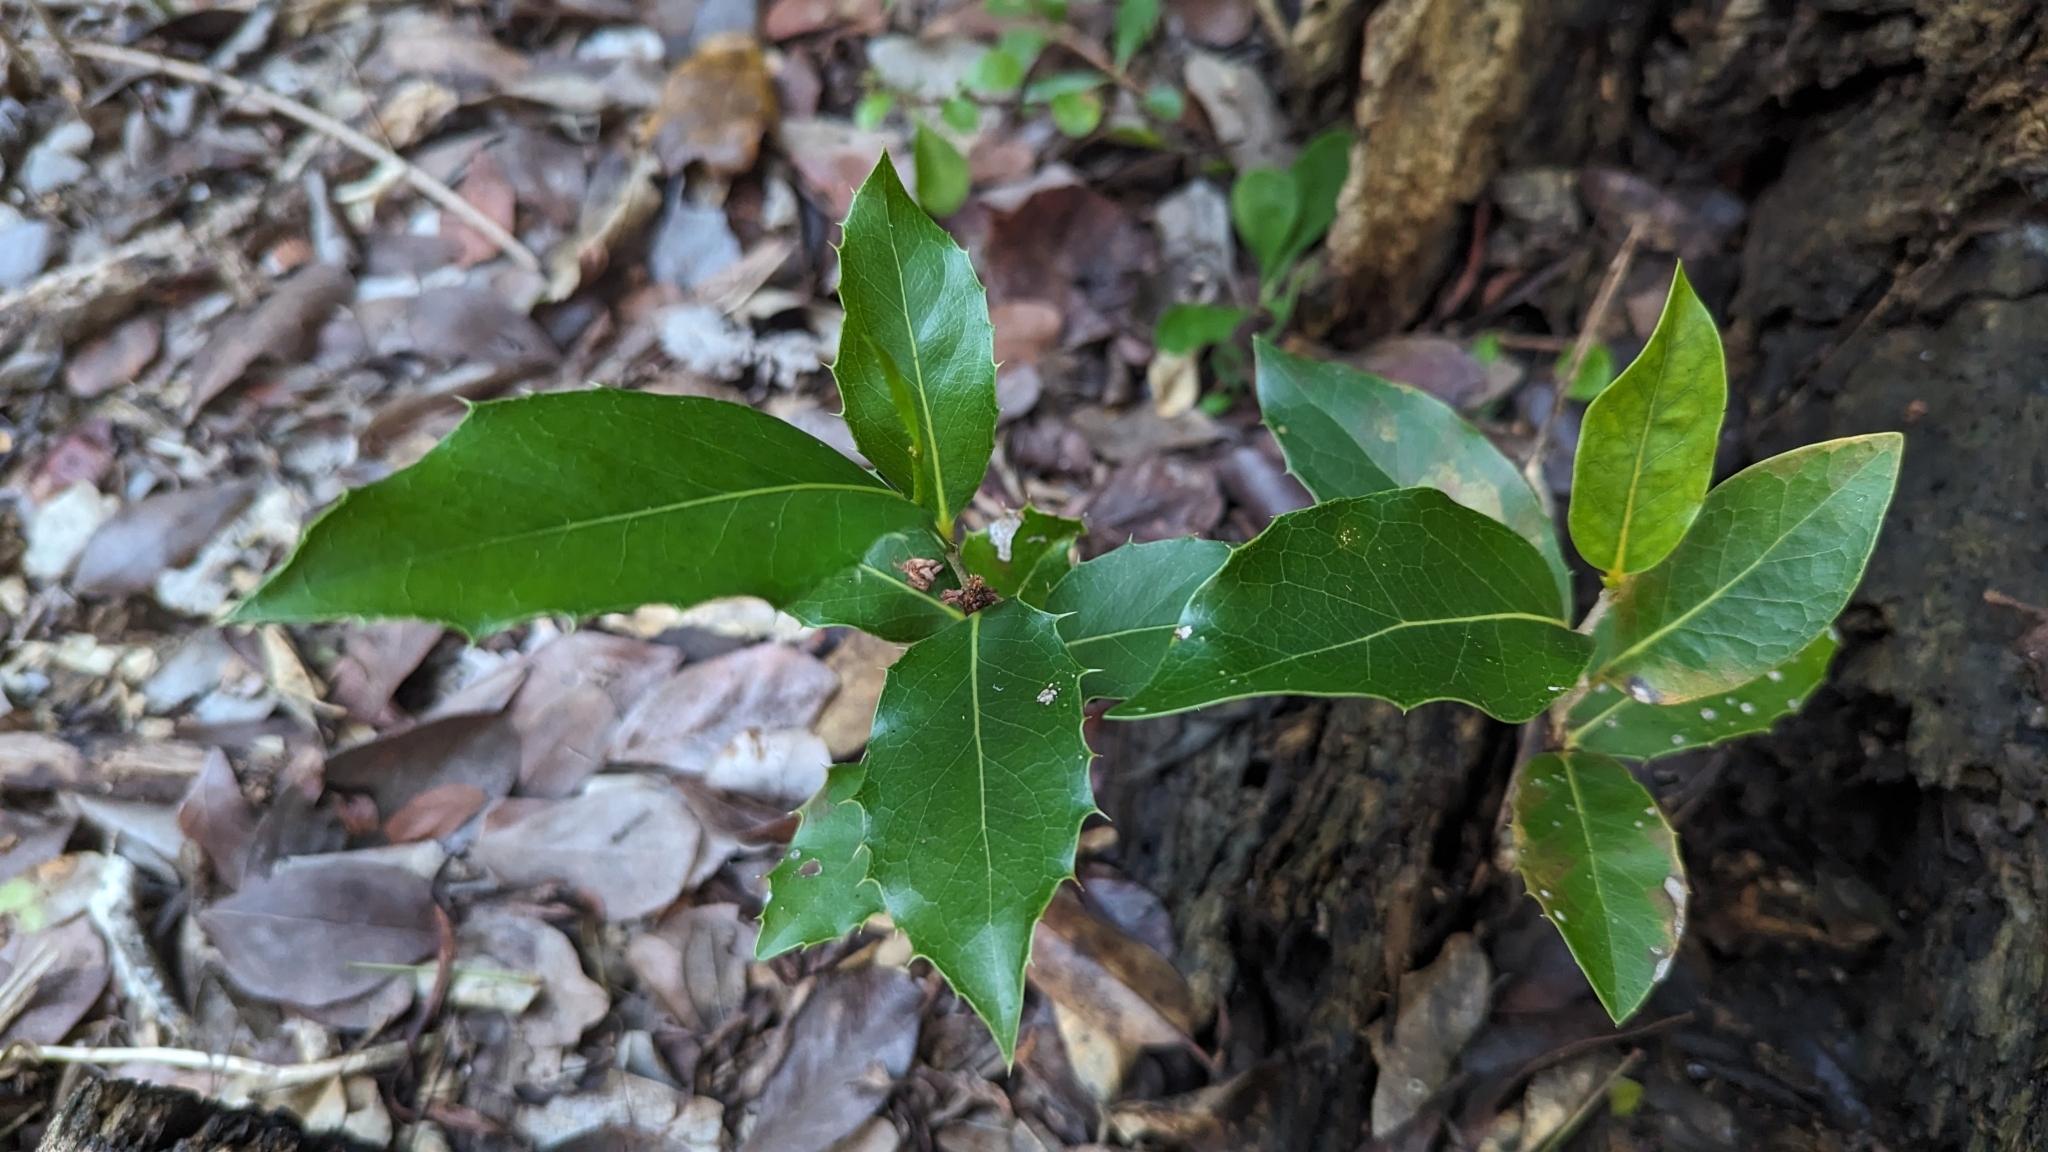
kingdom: Plantae
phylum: Tracheophyta
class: Magnoliopsida
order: Malpighiales
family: Putranjivaceae
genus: Drypetes
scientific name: Drypetes diversifolia
